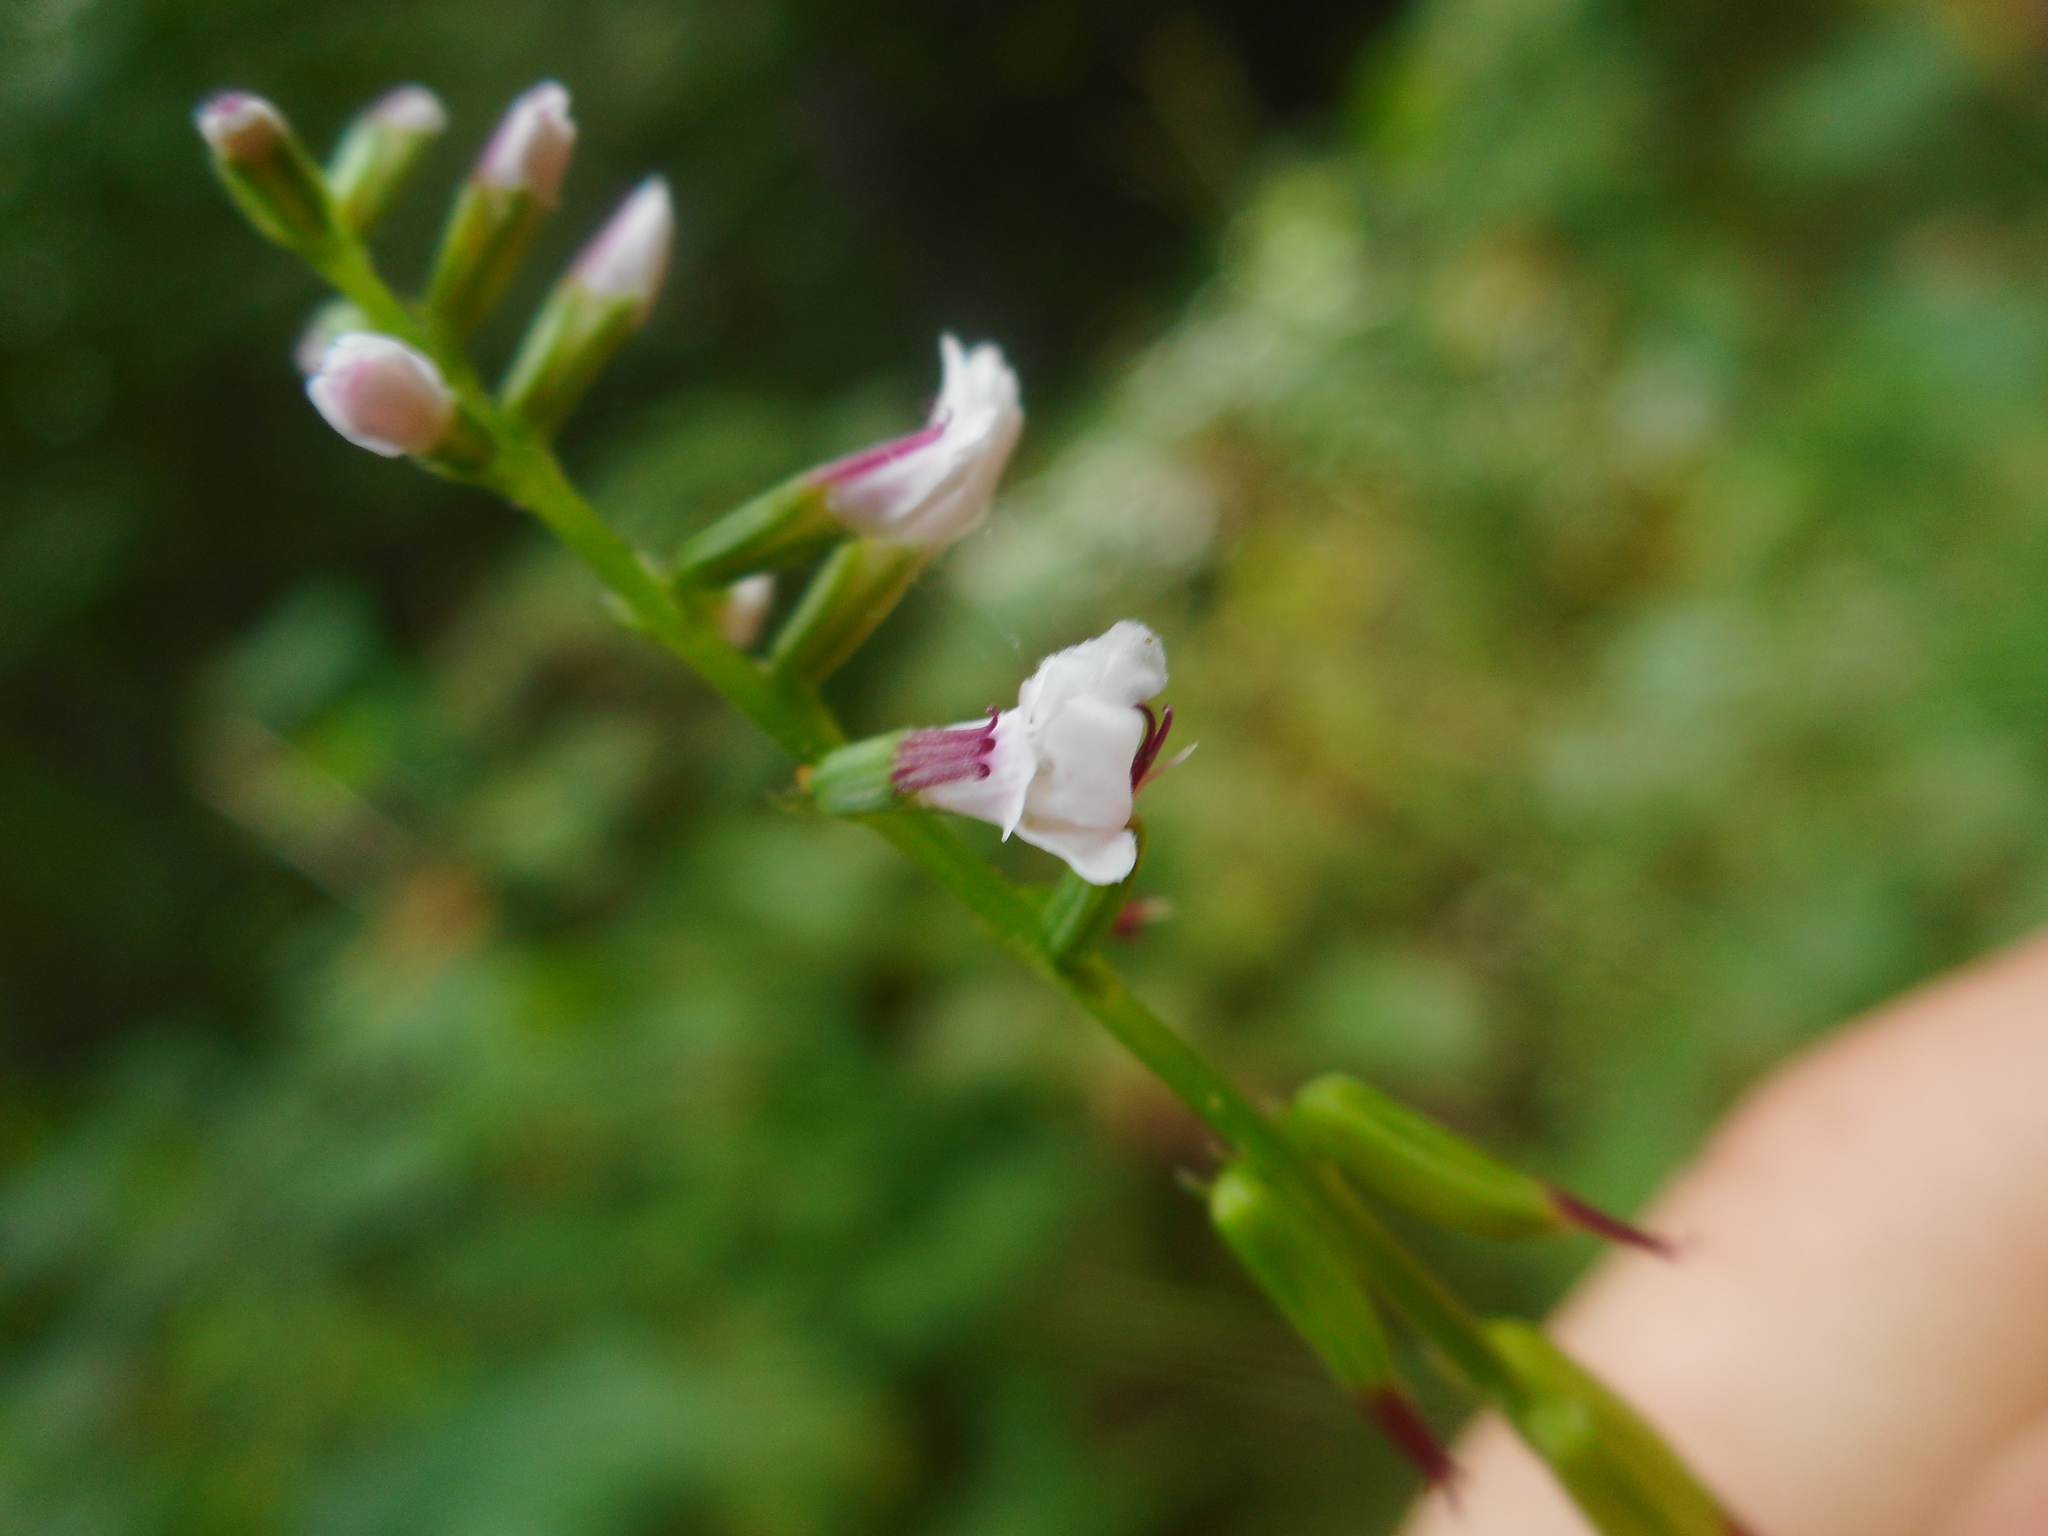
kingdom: Plantae
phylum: Tracheophyta
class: Magnoliopsida
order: Lamiales
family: Phrymaceae
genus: Phryma
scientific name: Phryma nana
